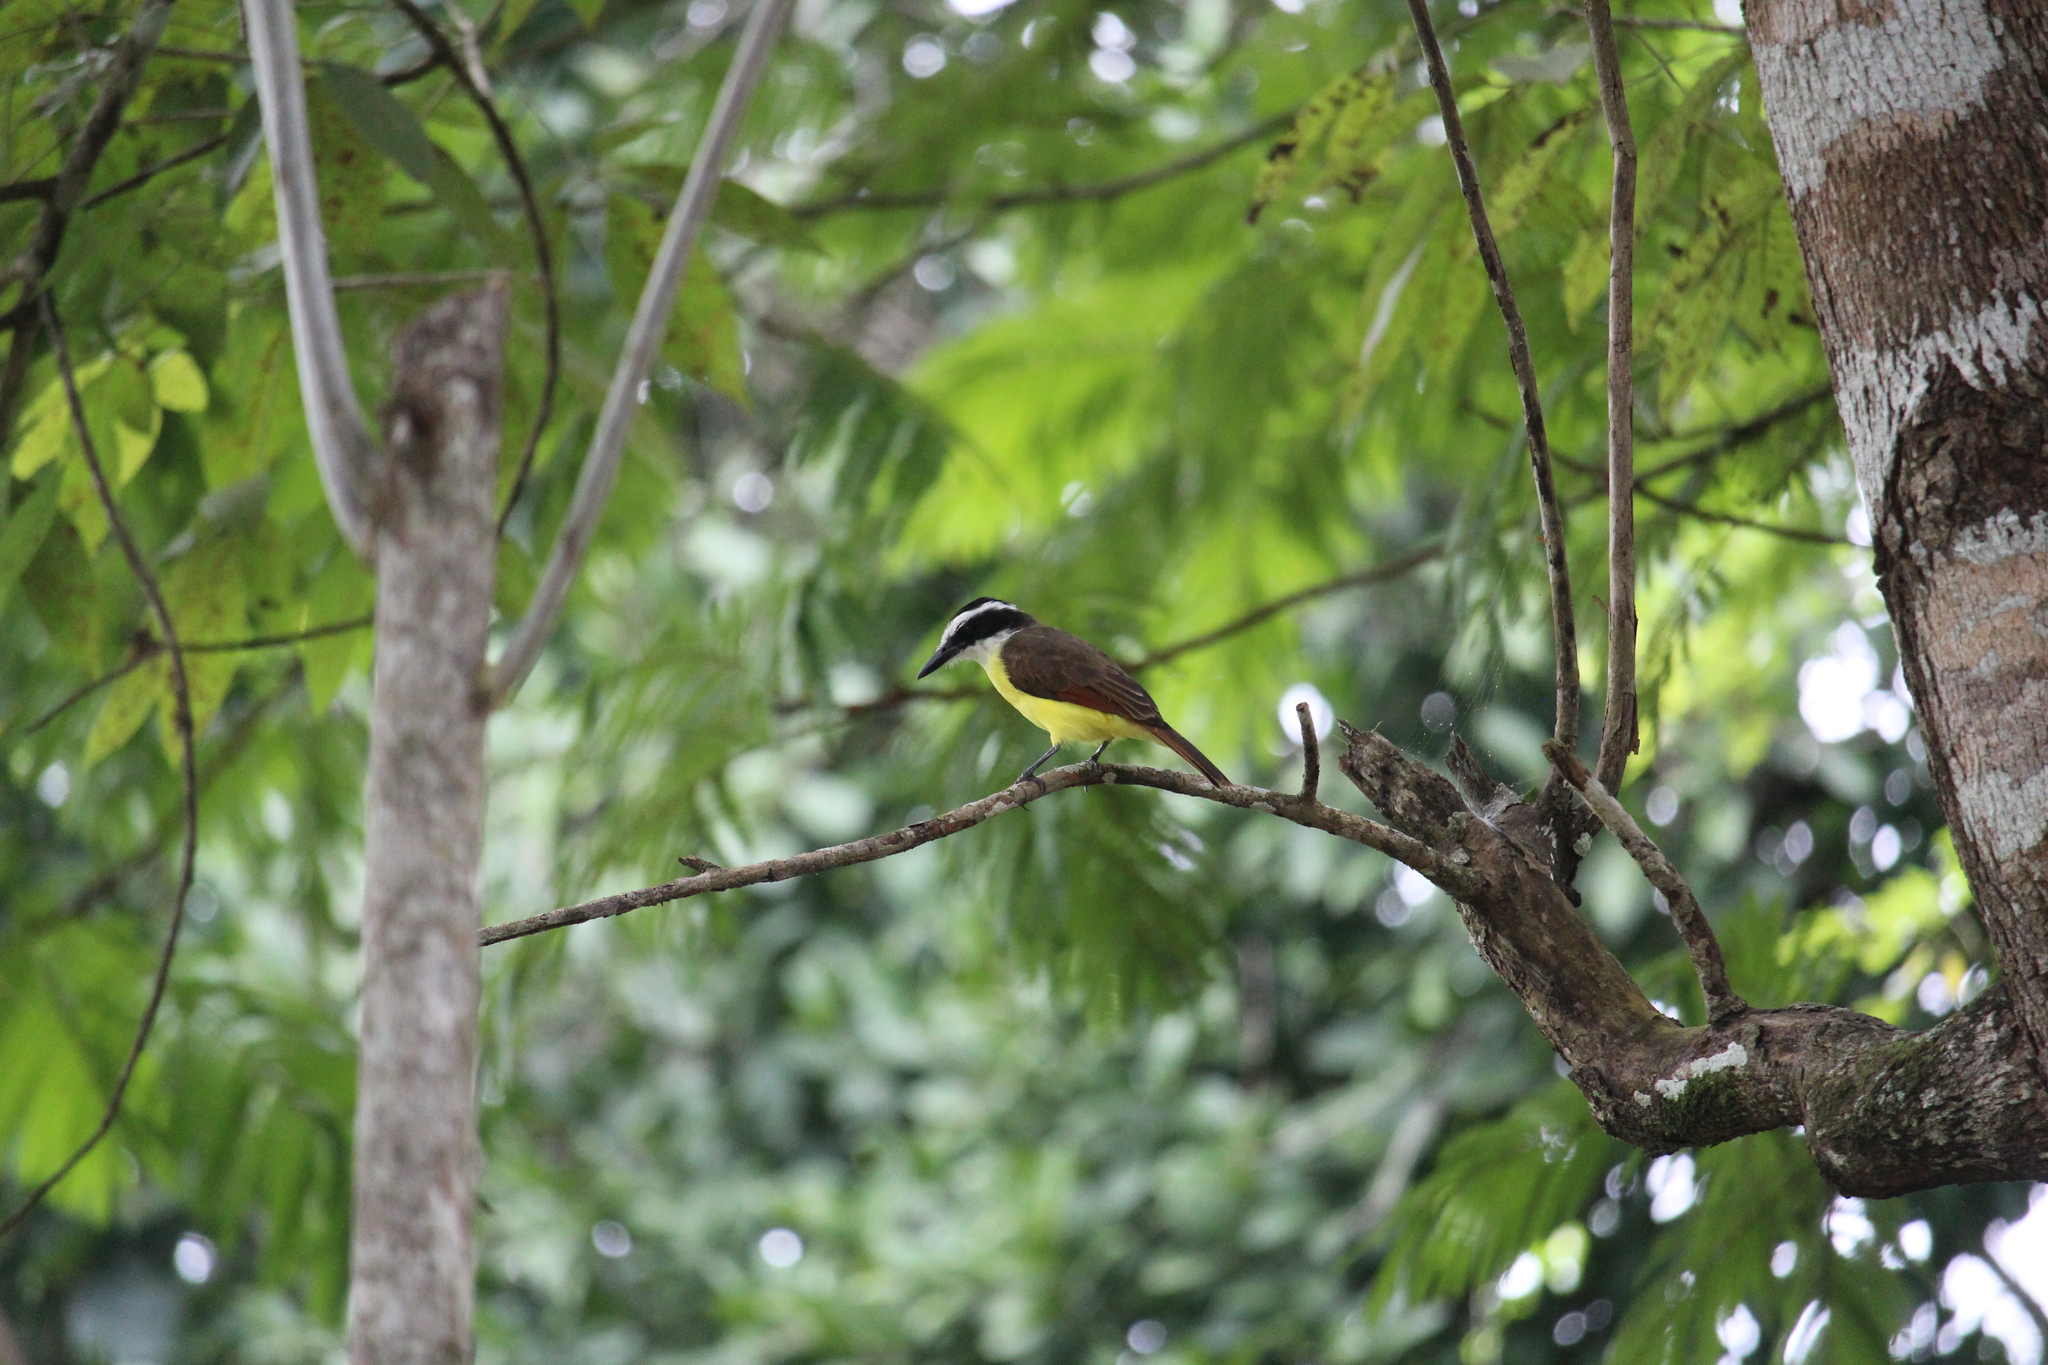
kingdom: Animalia
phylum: Chordata
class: Aves
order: Passeriformes
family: Tyrannidae
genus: Pitangus
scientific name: Pitangus sulphuratus
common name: Great kiskadee
